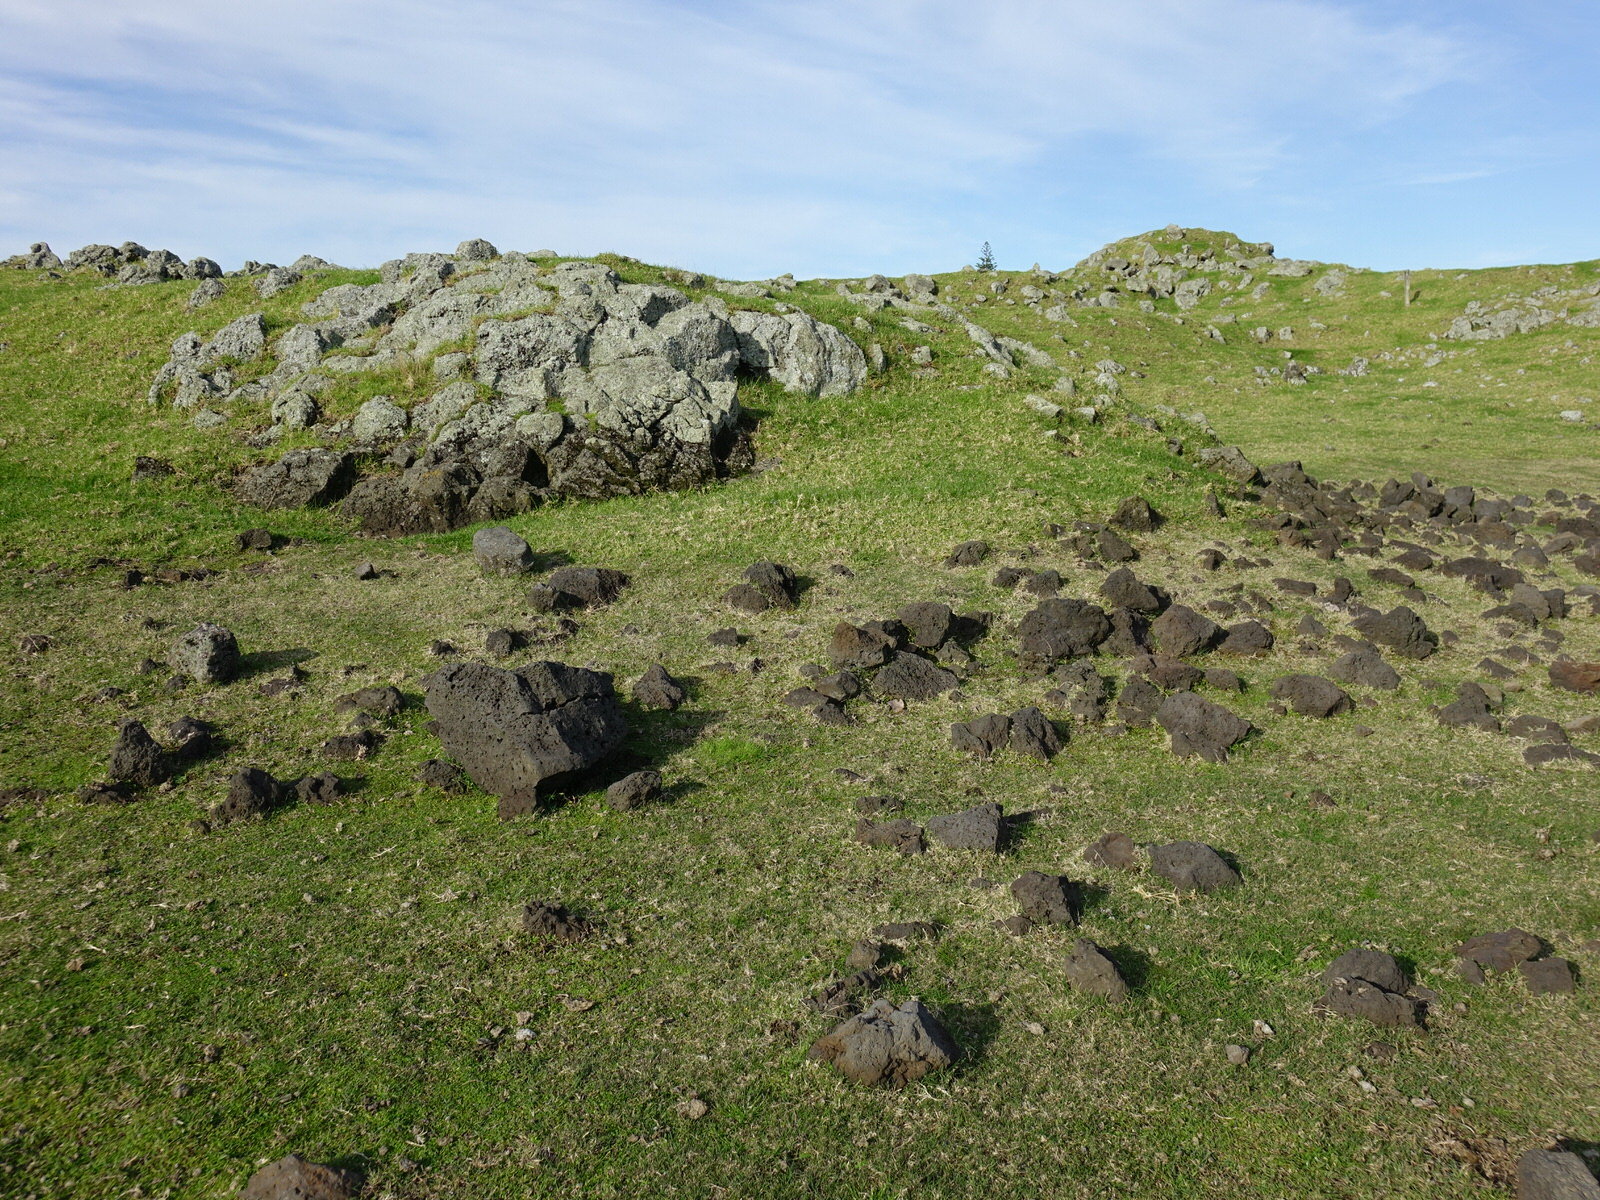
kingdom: Plantae
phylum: Tracheophyta
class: Magnoliopsida
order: Oxalidales
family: Oxalidaceae
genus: Oxalis
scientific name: Oxalis exilis
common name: Least yellow-sorrel
